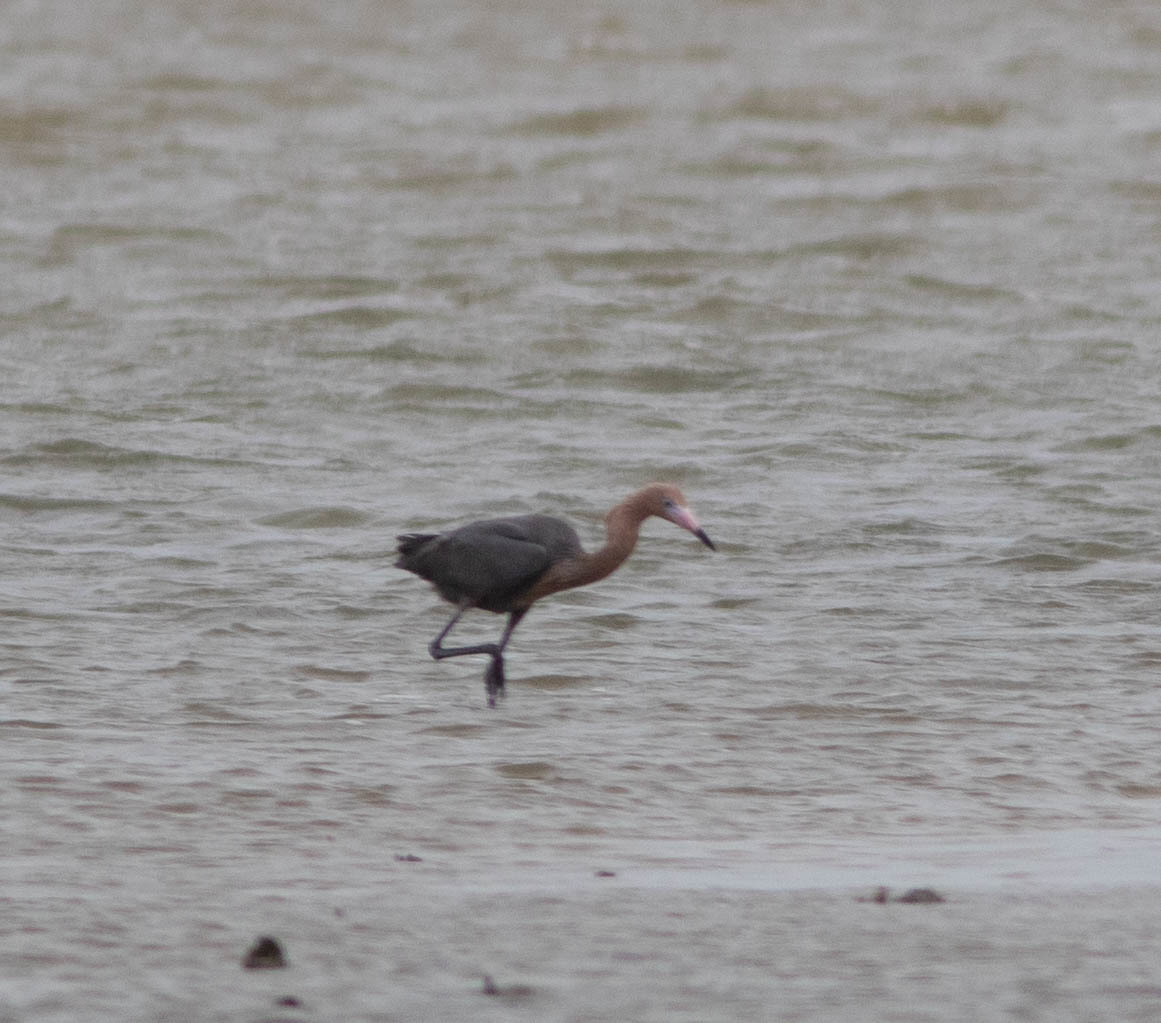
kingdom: Animalia
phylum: Chordata
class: Aves
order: Pelecaniformes
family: Ardeidae
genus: Egretta
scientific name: Egretta rufescens
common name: Reddish egret
